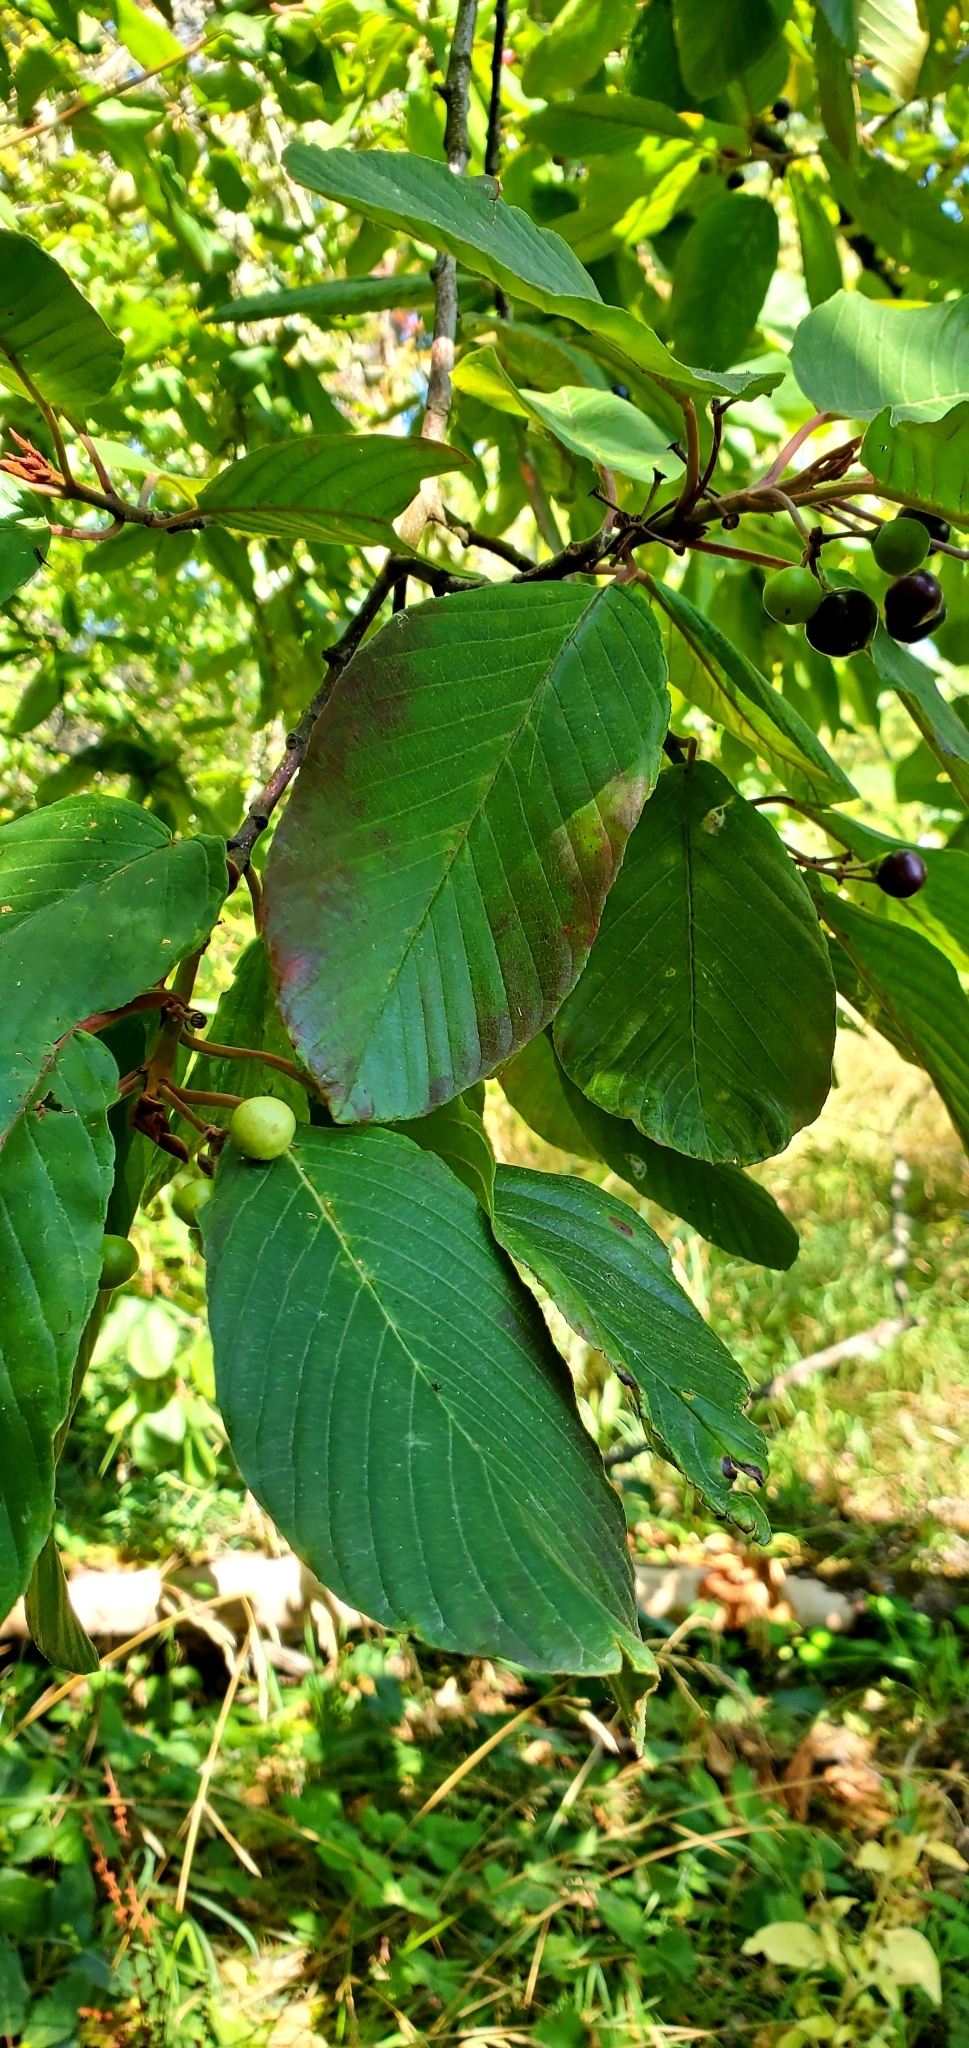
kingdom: Plantae
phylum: Tracheophyta
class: Magnoliopsida
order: Rosales
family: Rhamnaceae
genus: Frangula
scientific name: Frangula purshiana
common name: Cascara buckthorn
